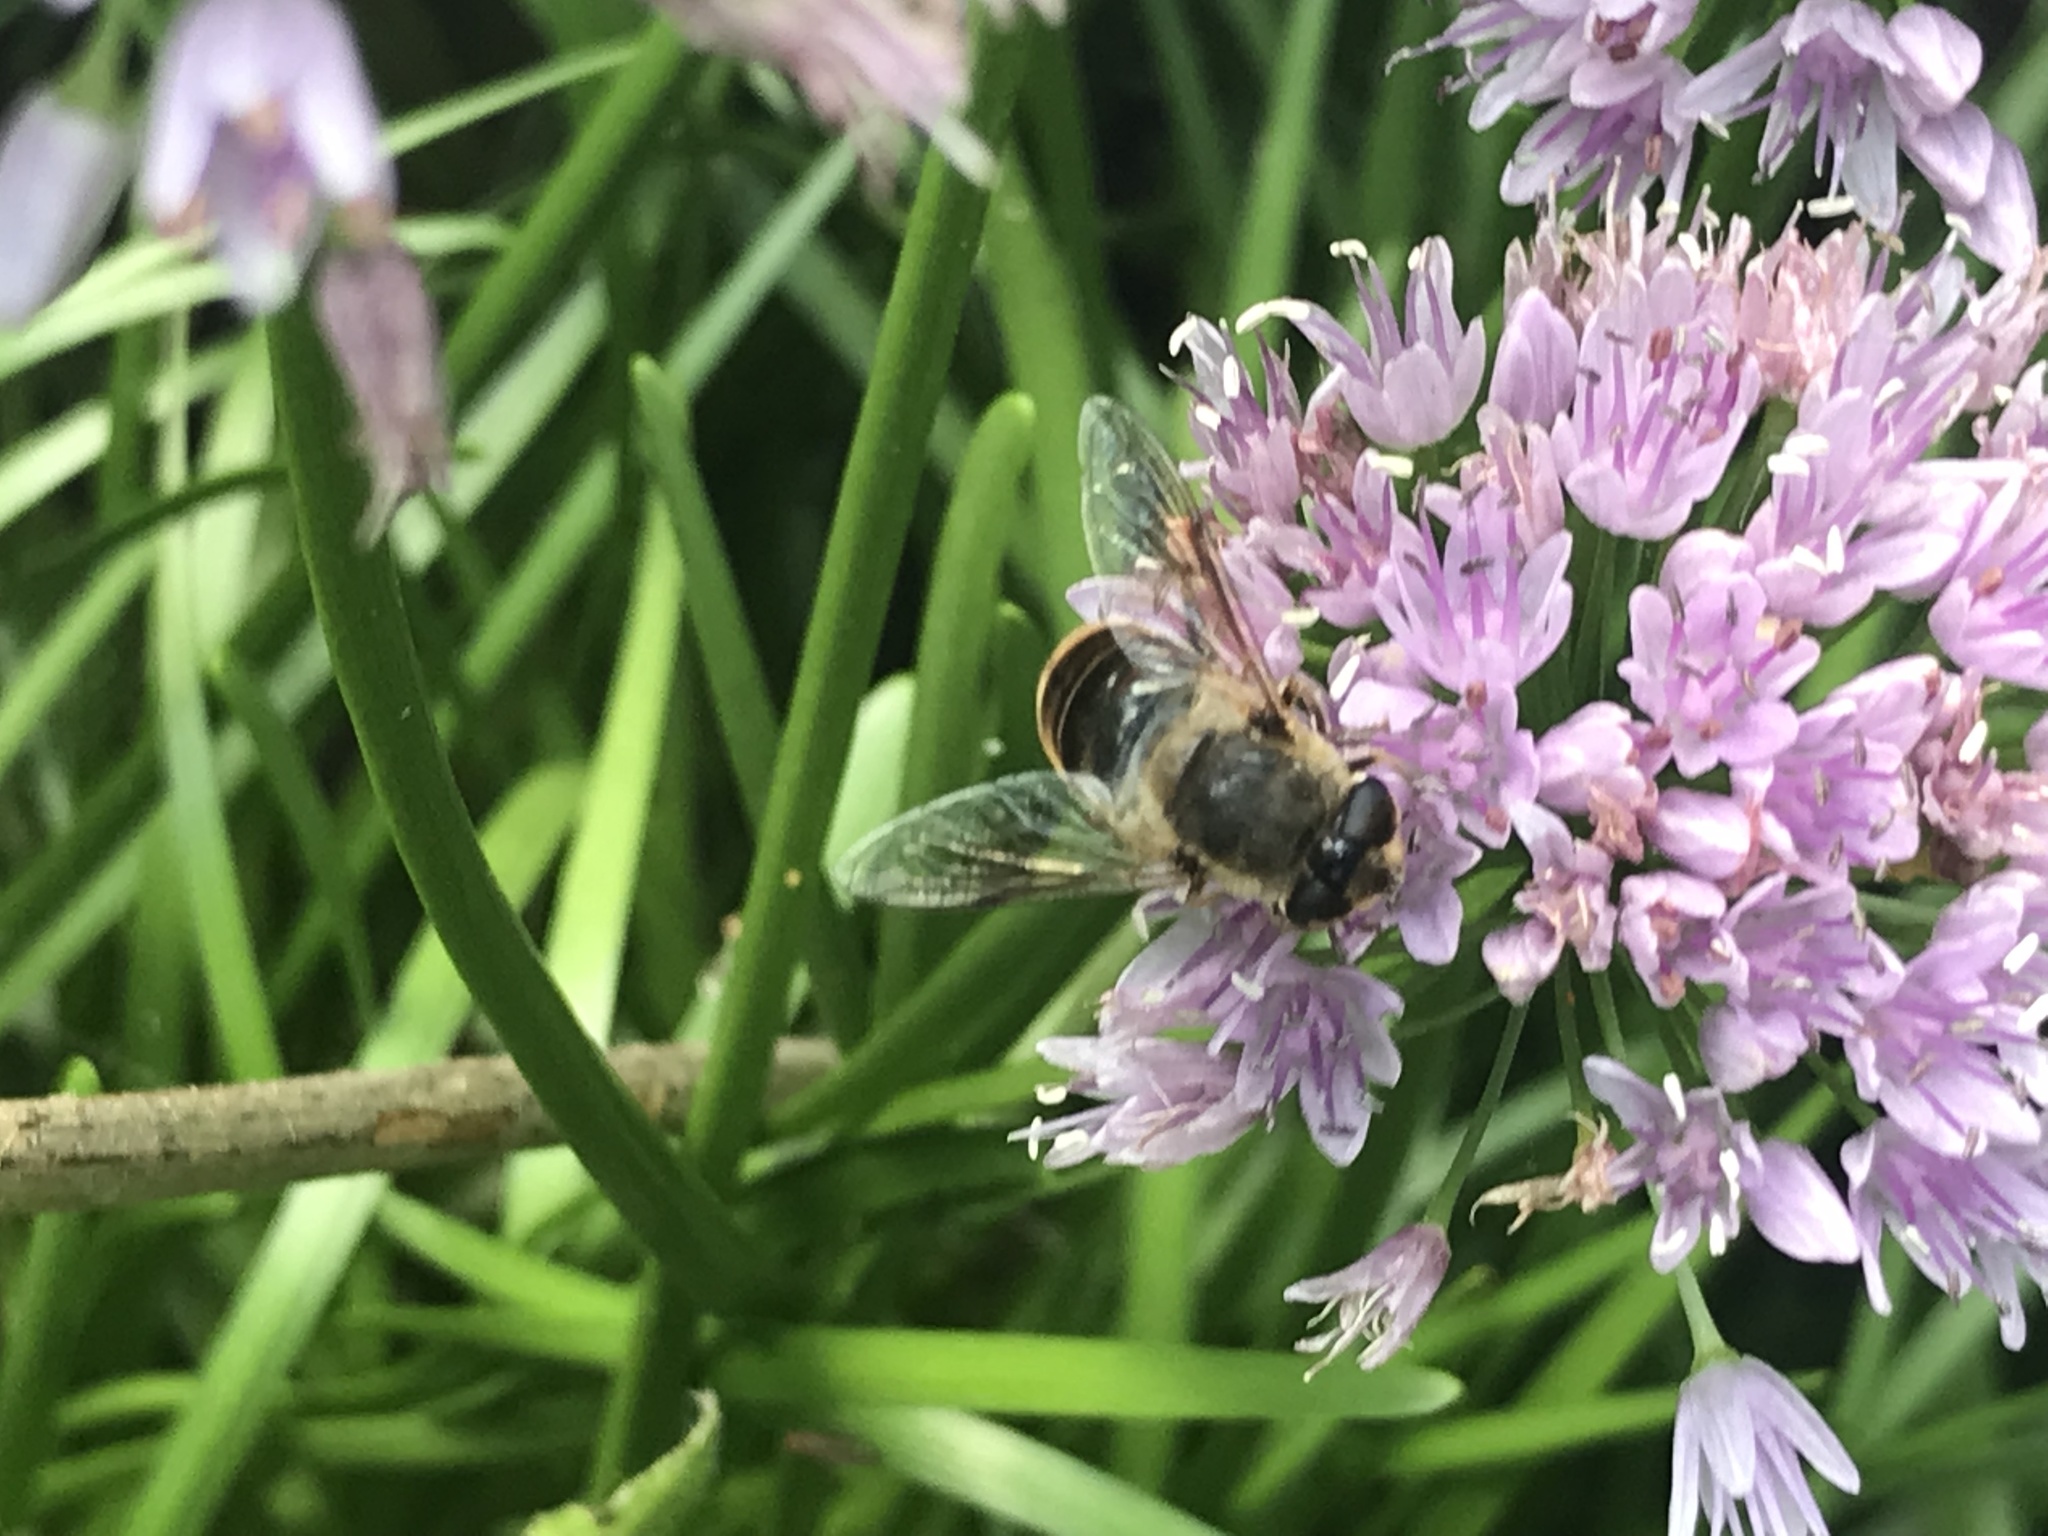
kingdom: Animalia
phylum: Arthropoda
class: Insecta
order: Diptera
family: Syrphidae
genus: Eristalis
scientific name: Eristalis tenax
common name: Drone fly
